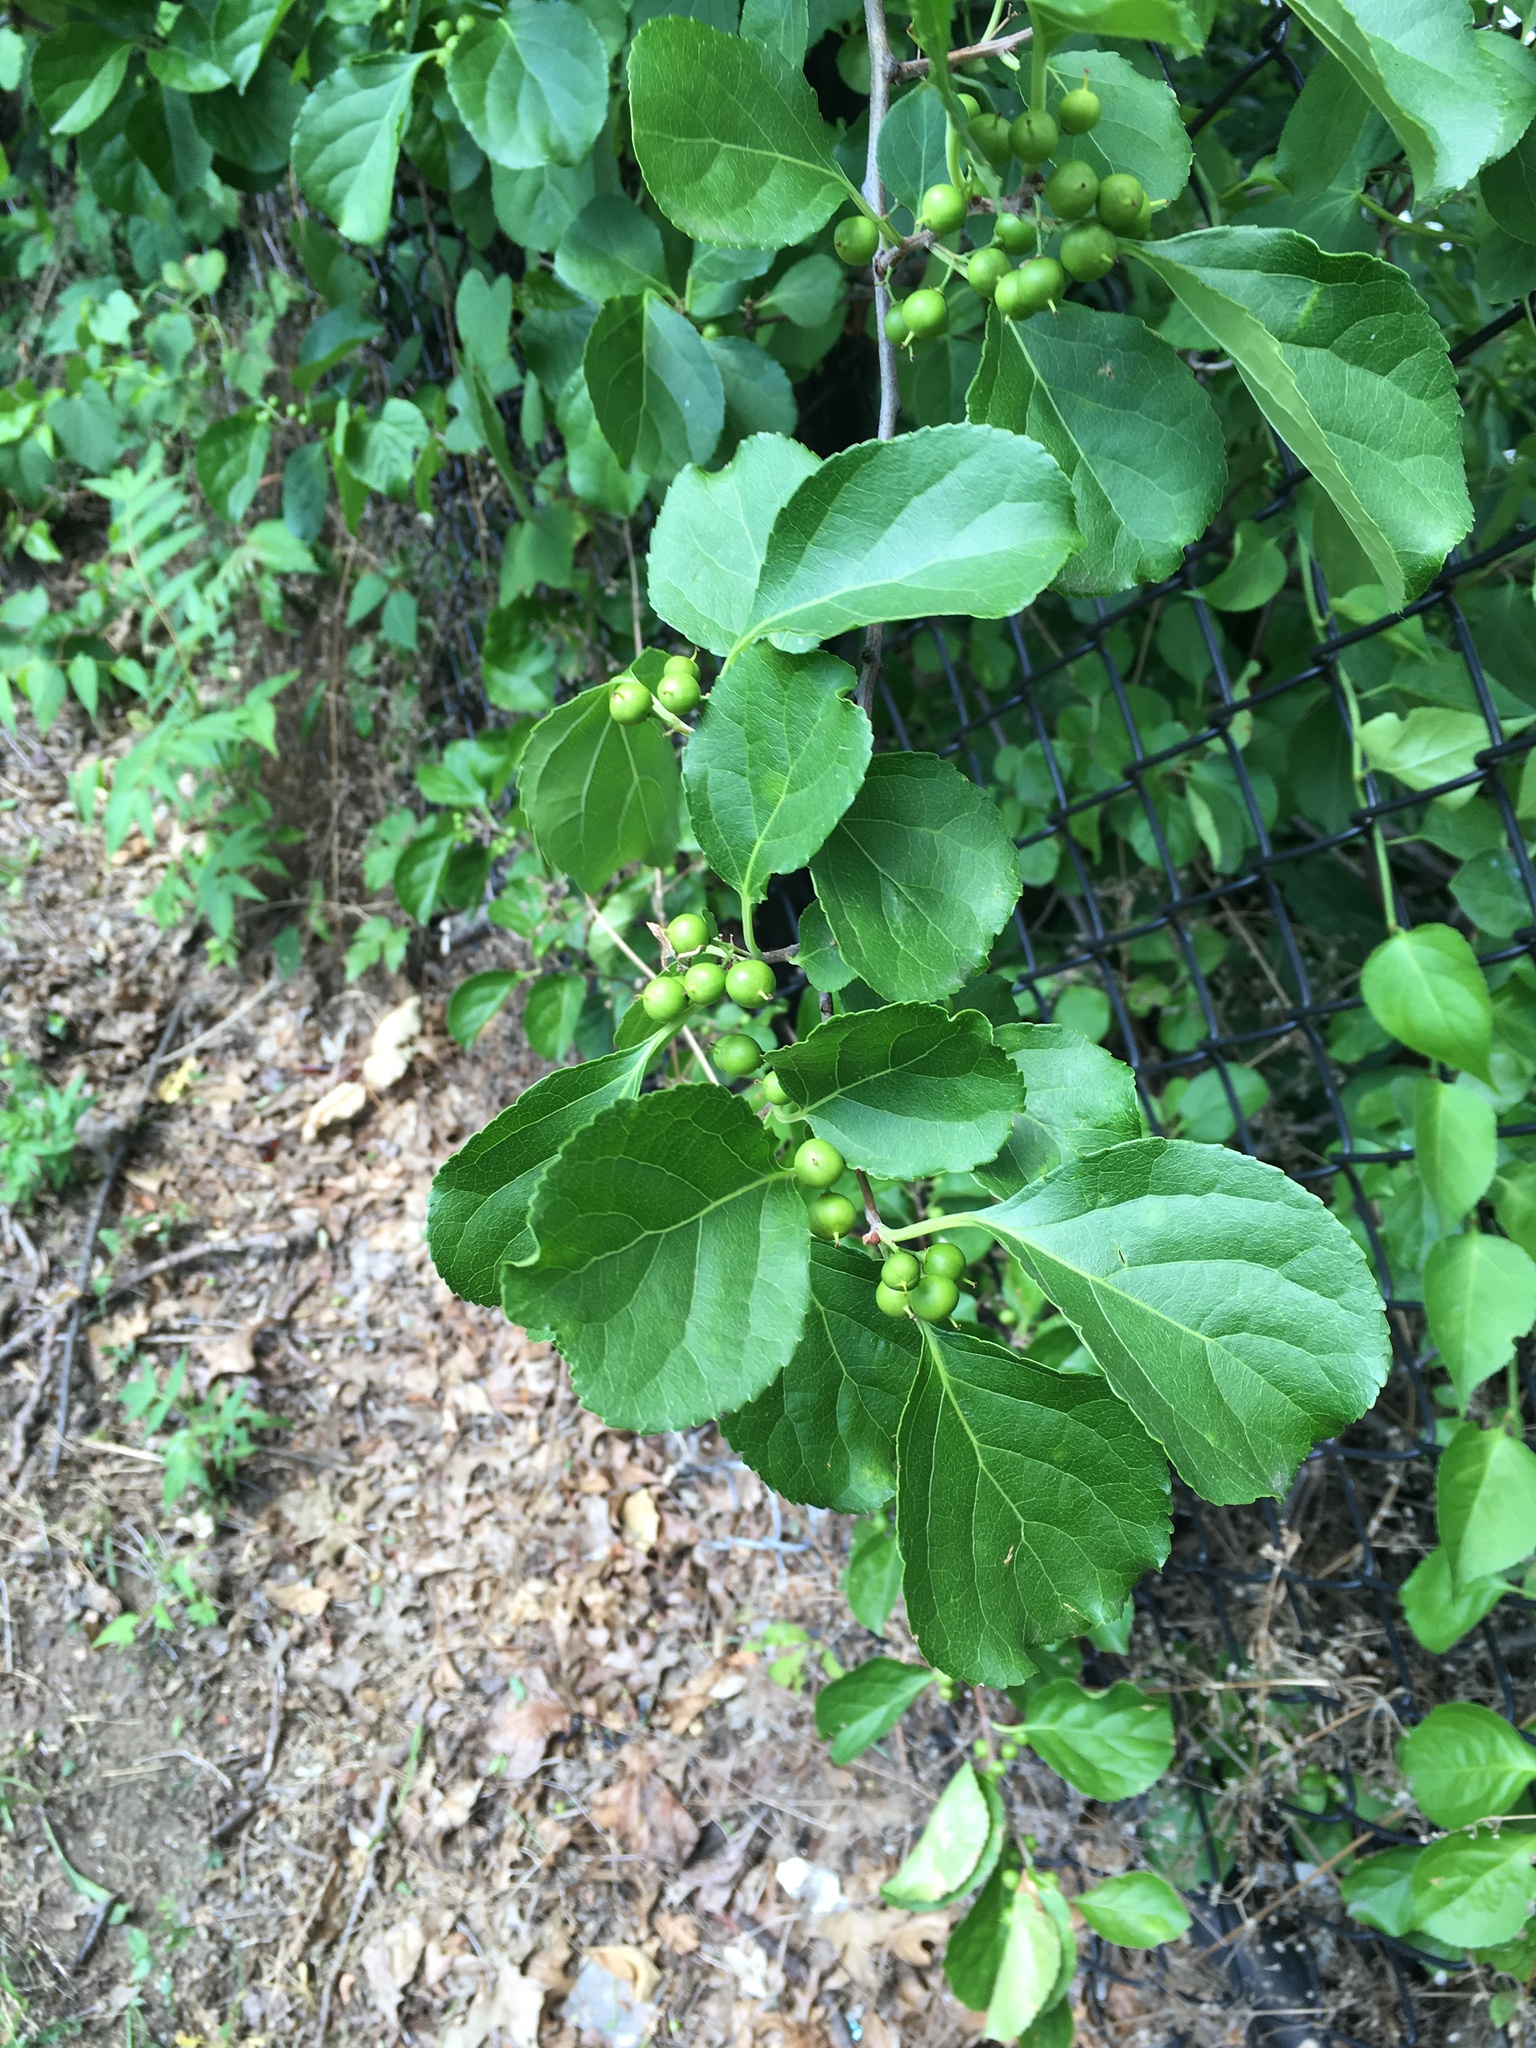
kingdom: Plantae
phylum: Tracheophyta
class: Magnoliopsida
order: Celastrales
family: Celastraceae
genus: Celastrus
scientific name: Celastrus orbiculatus
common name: Oriental bittersweet
